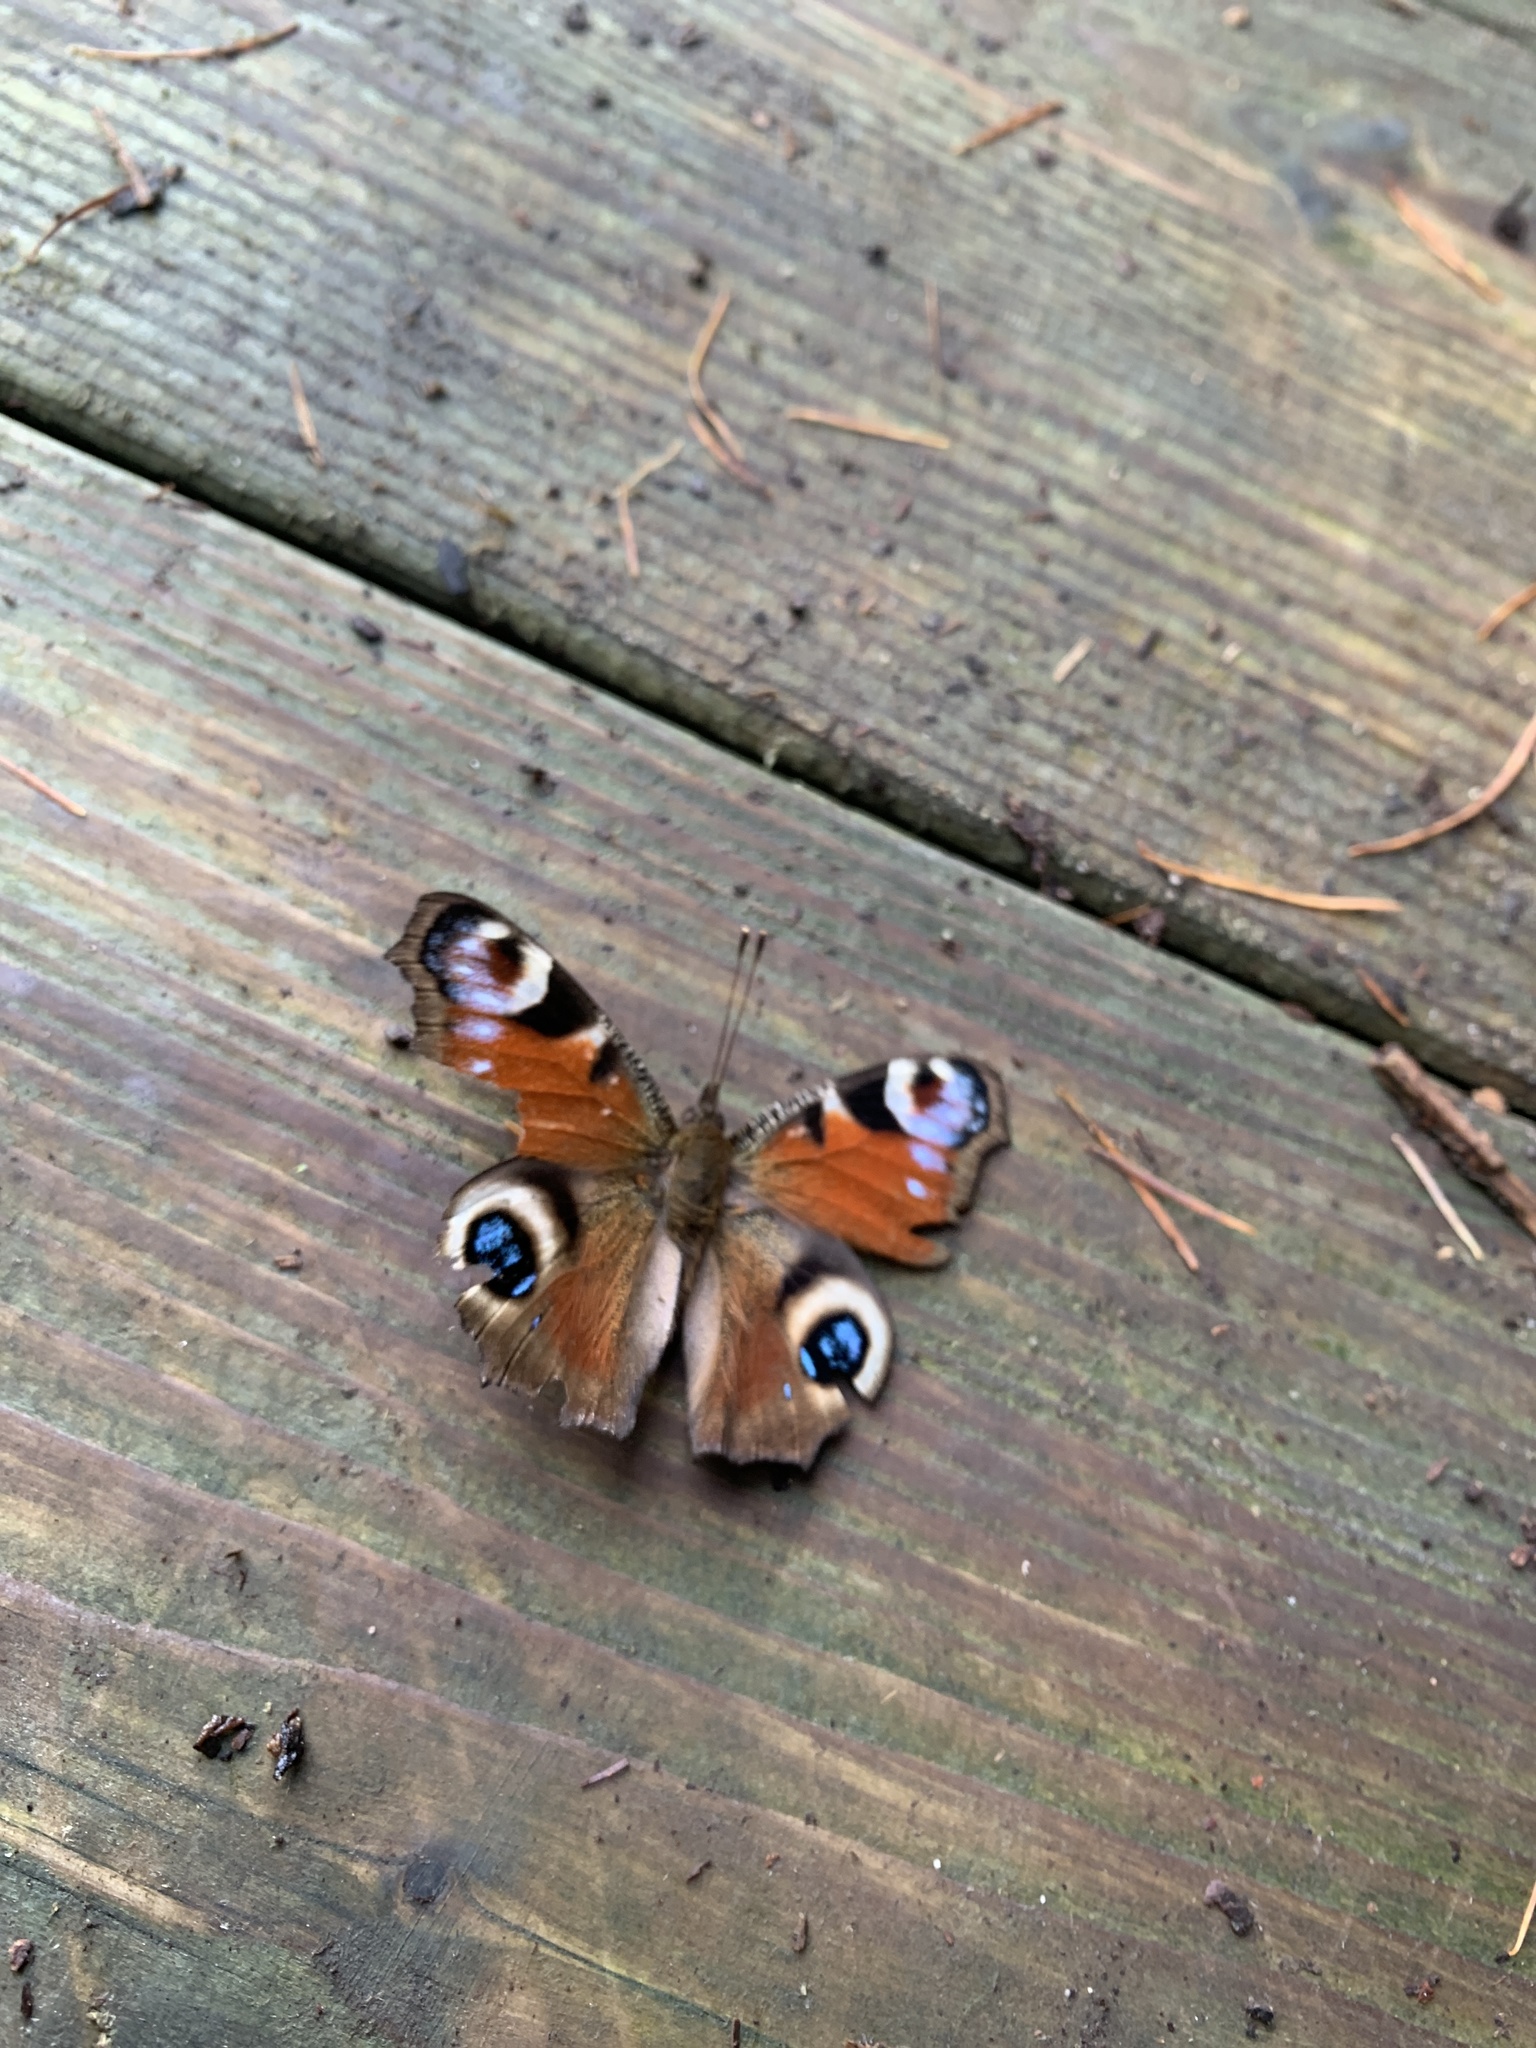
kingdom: Animalia
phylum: Arthropoda
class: Insecta
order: Lepidoptera
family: Nymphalidae
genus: Aglais
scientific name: Aglais io
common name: Peacock
